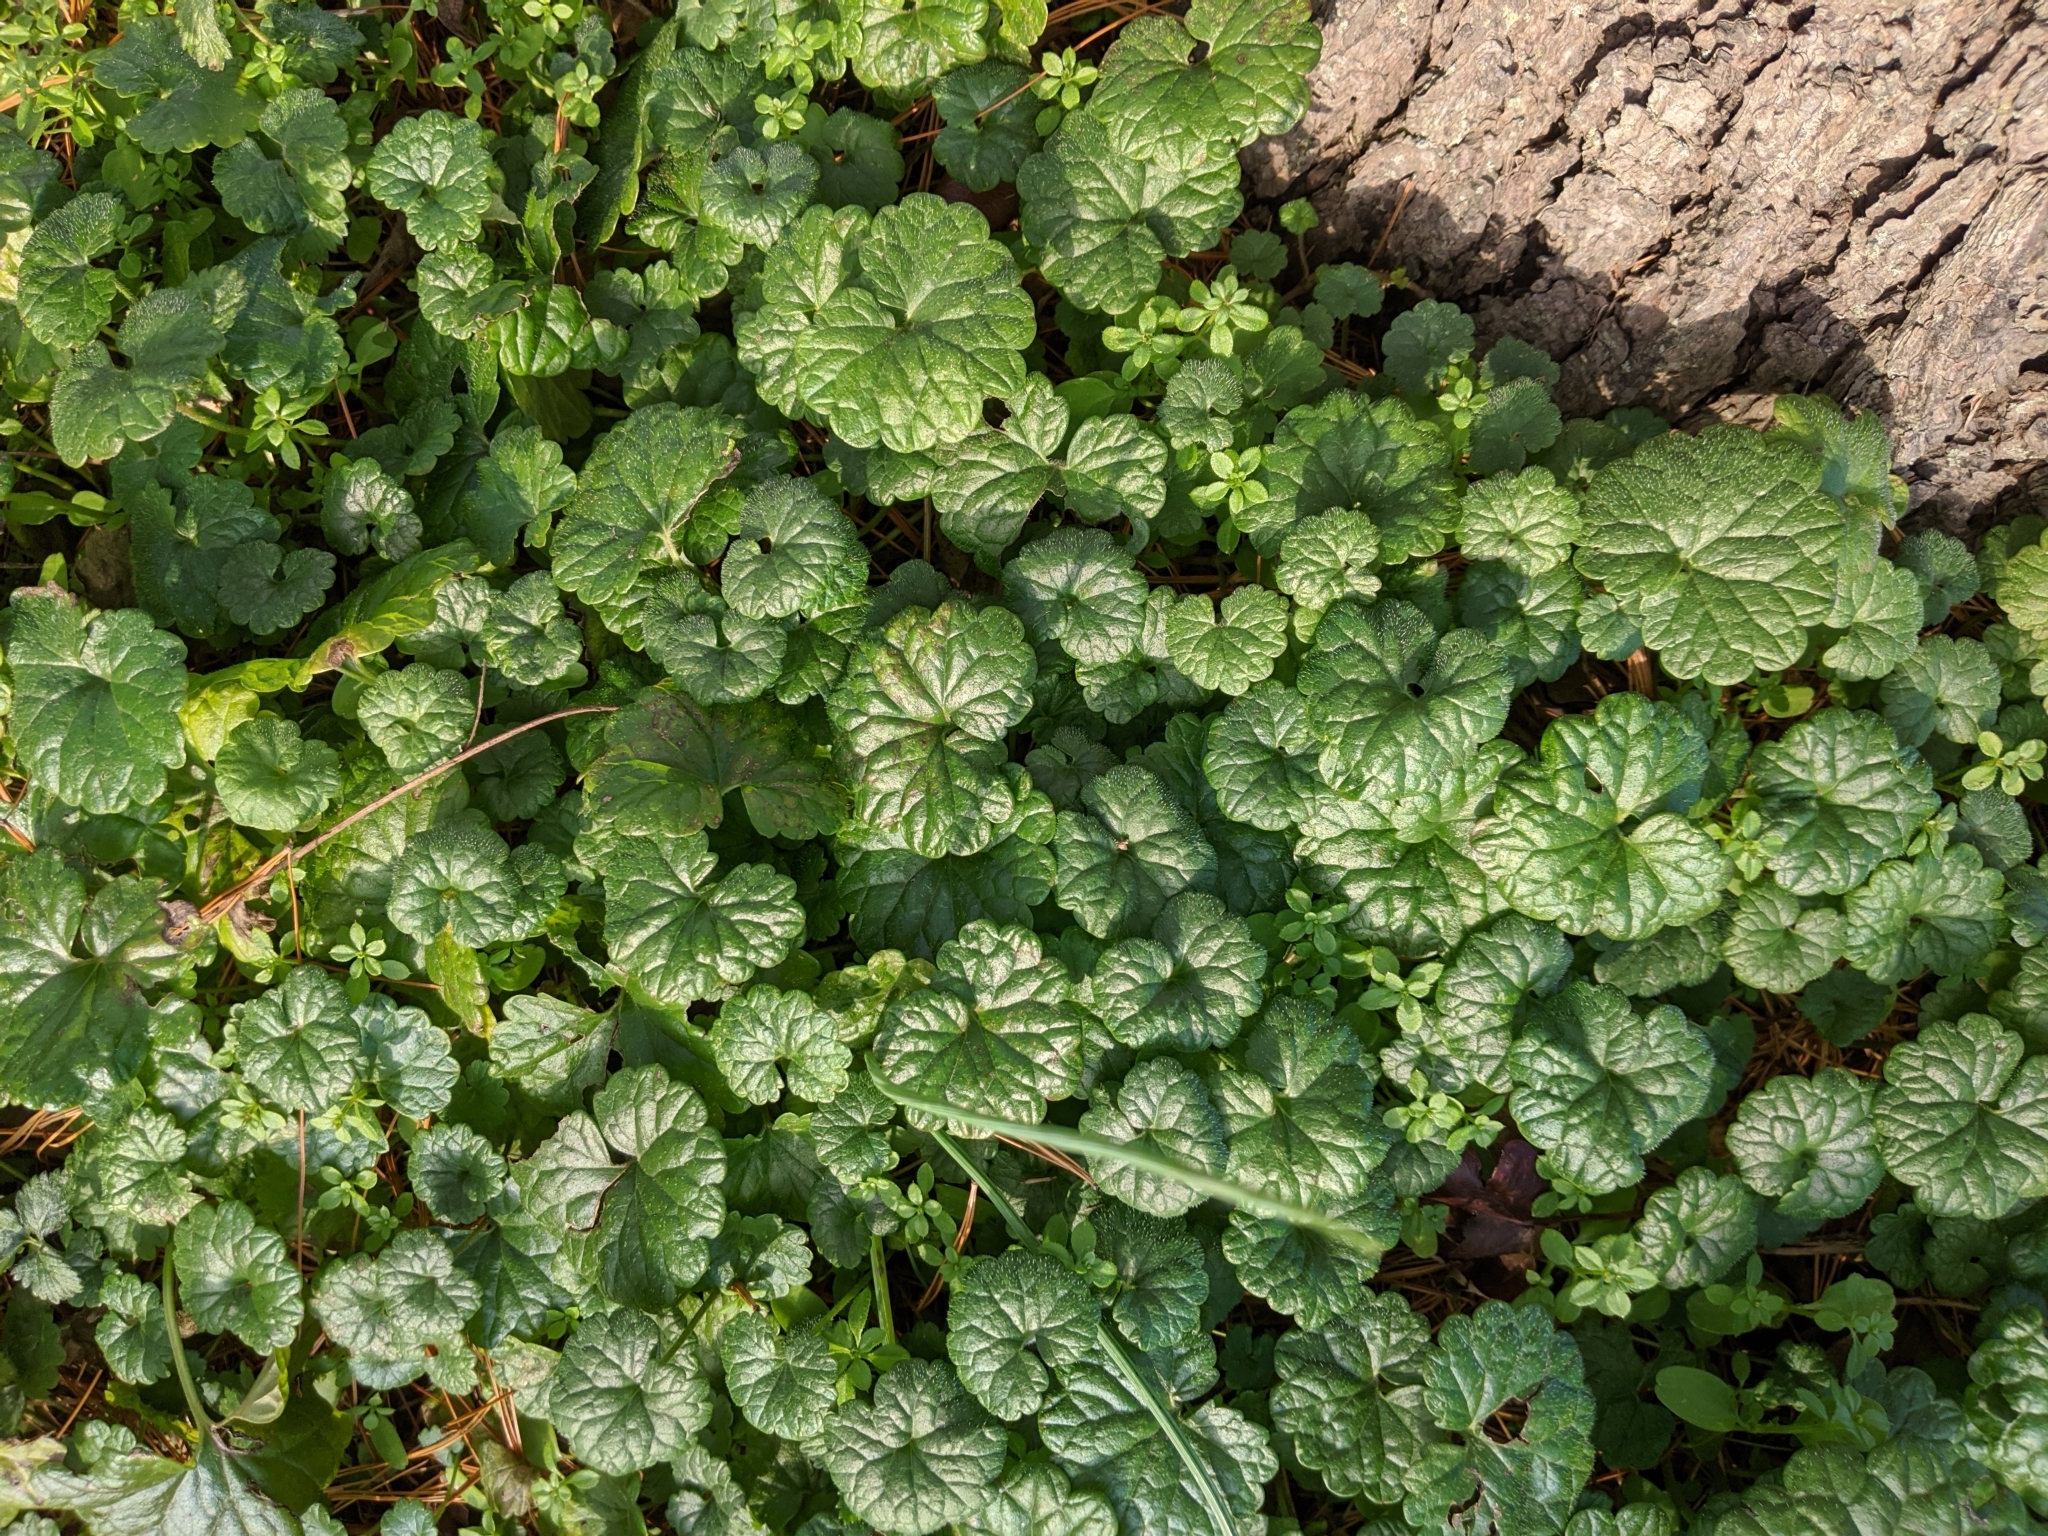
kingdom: Plantae
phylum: Tracheophyta
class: Magnoliopsida
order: Lamiales
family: Lamiaceae
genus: Glechoma
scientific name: Glechoma hederacea
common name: Ground ivy
